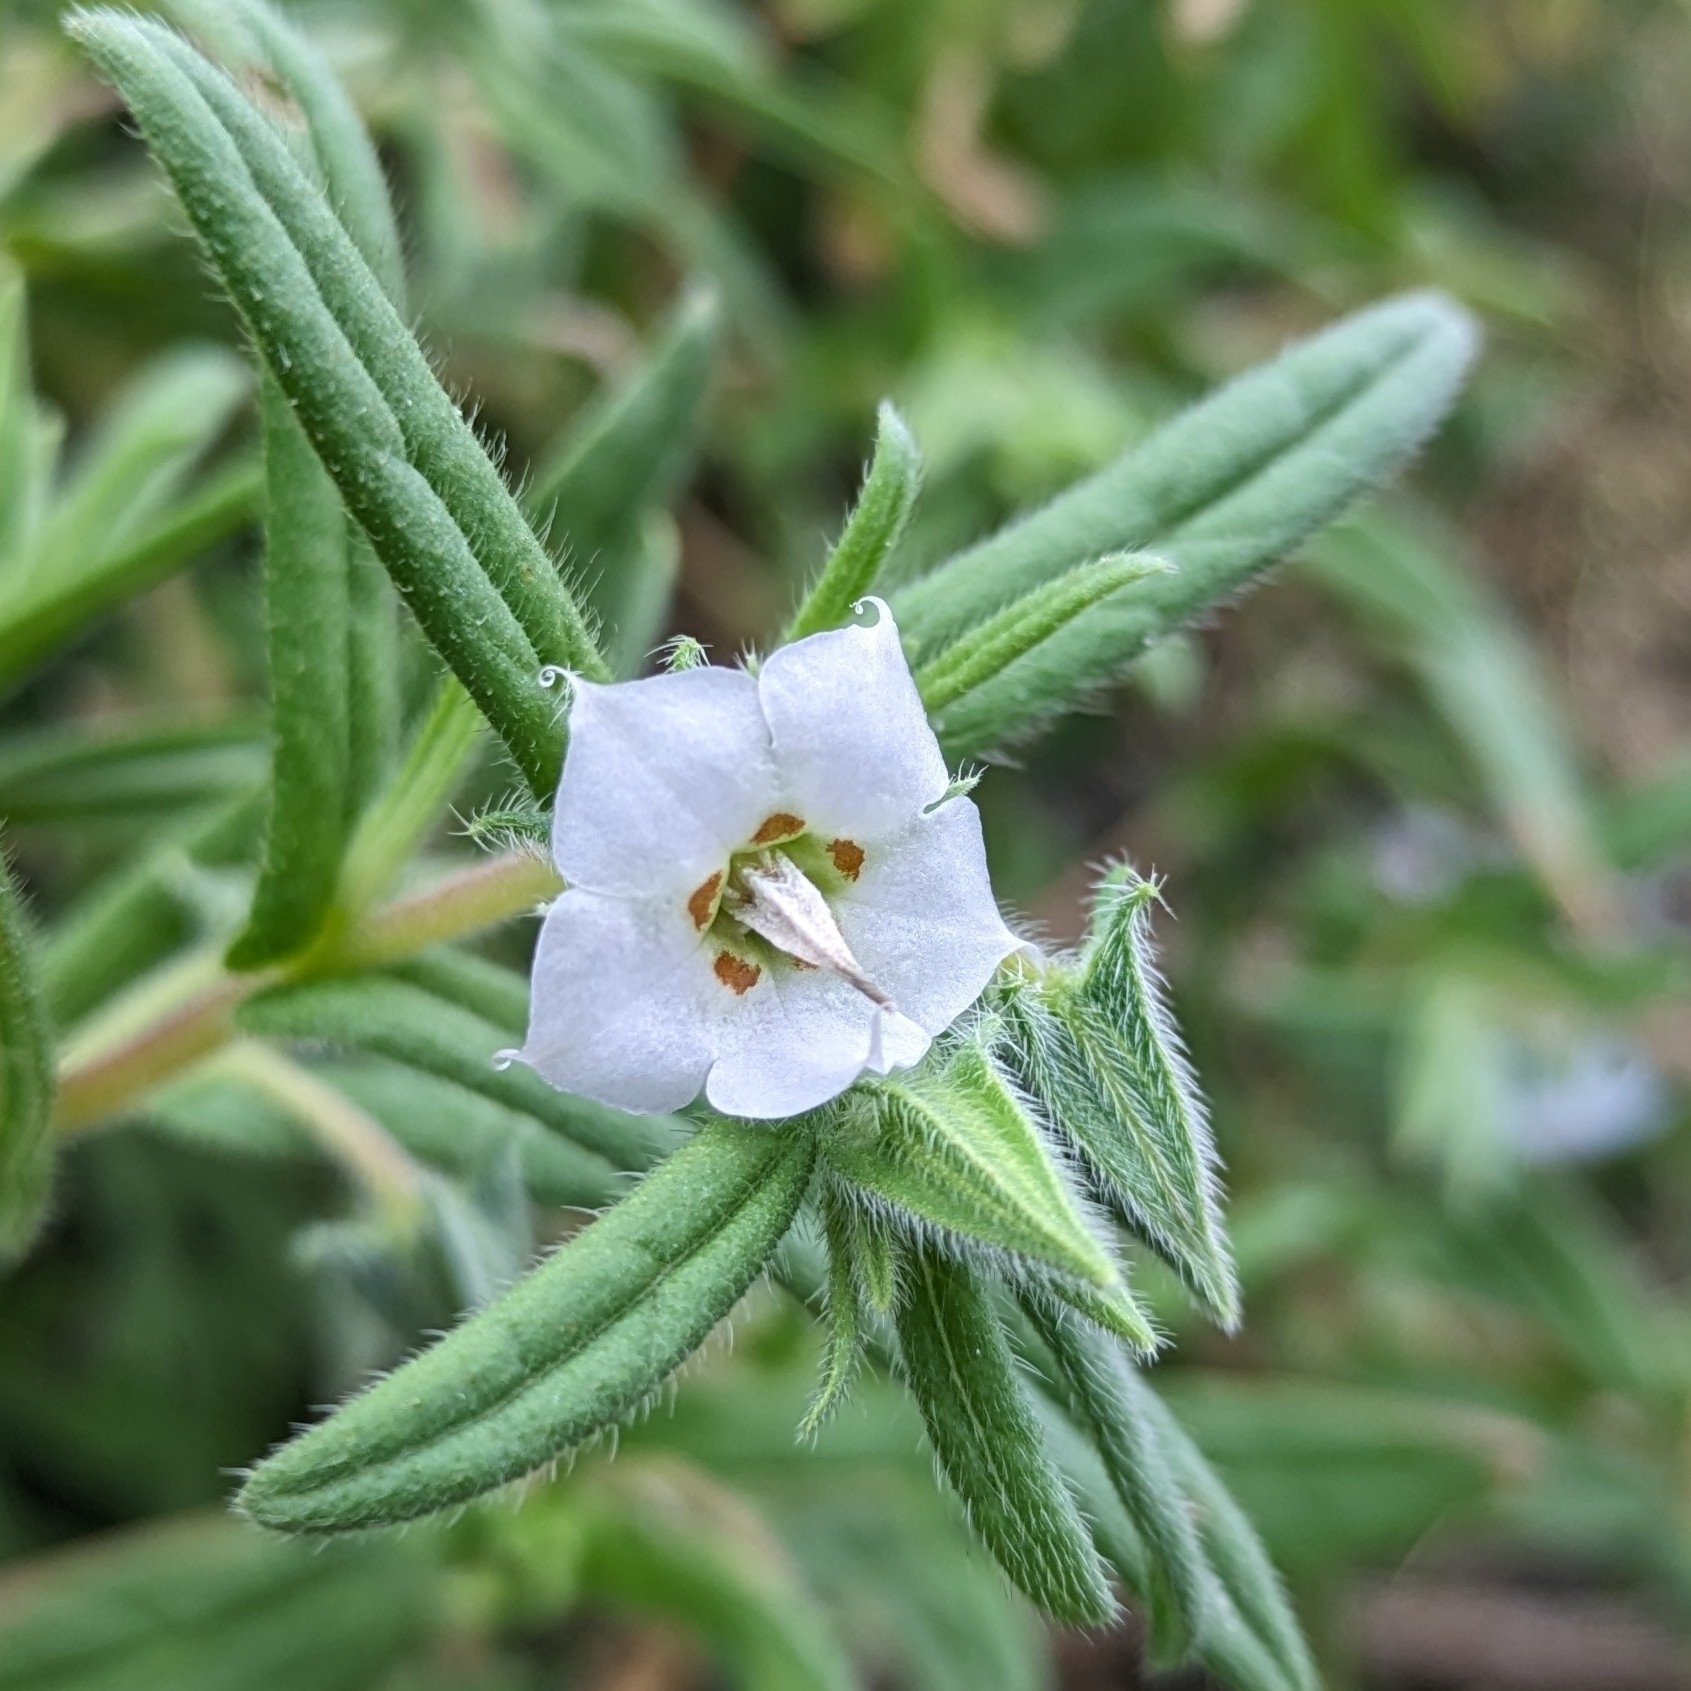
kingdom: Plantae
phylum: Tracheophyta
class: Magnoliopsida
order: Boraginales
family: Boraginaceae
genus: Trichodesma
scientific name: Trichodesma indicum
